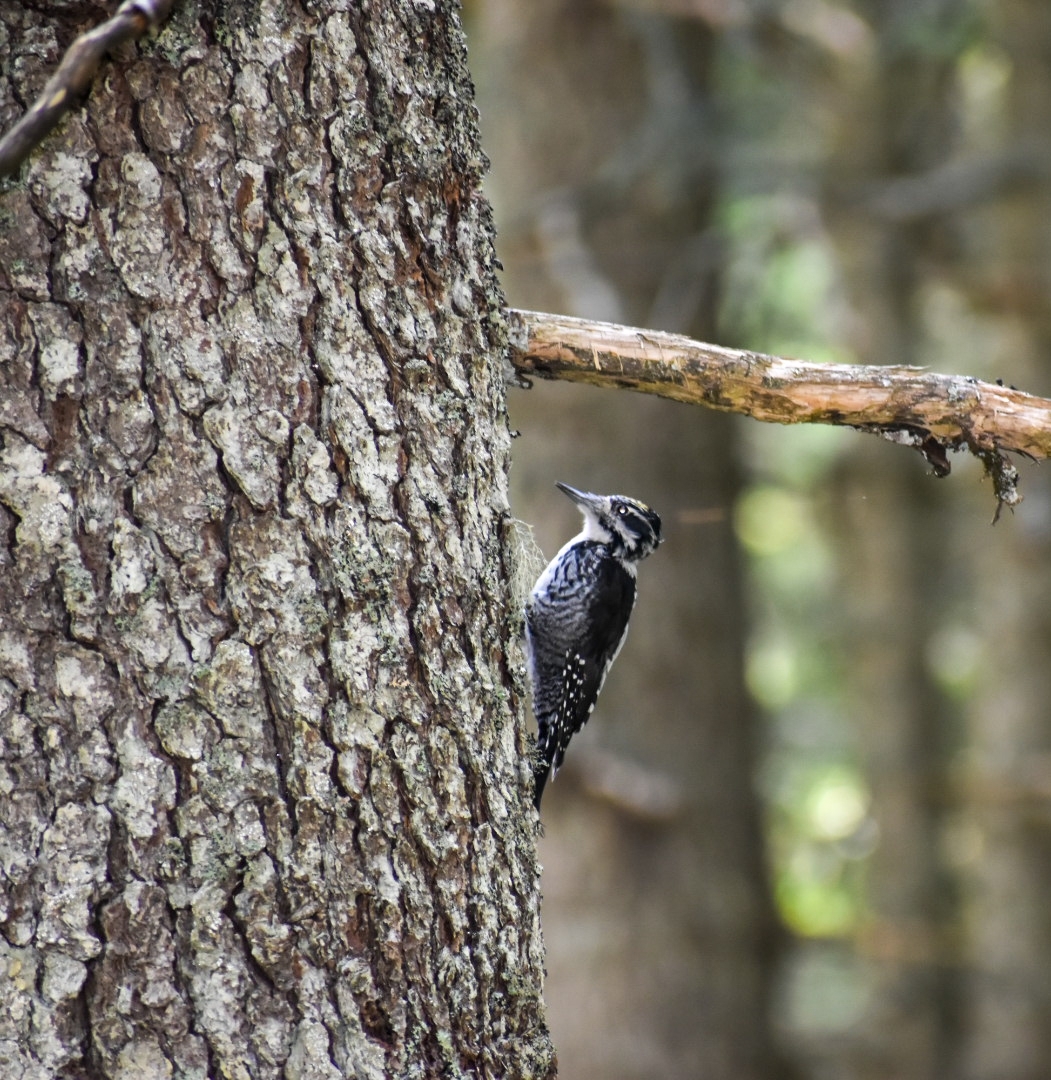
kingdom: Animalia
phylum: Chordata
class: Aves
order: Piciformes
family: Picidae
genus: Picoides
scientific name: Picoides tridactylus
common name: Eurasian three-toed woodpecker
